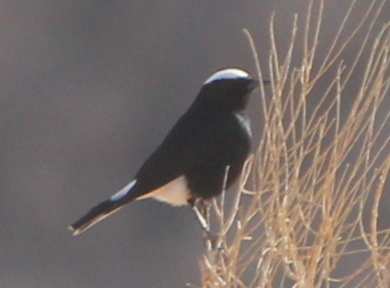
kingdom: Animalia
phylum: Chordata
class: Aves
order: Passeriformes
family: Muscicapidae
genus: Oenanthe
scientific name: Oenanthe leucopyga
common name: White-crowned wheatear
